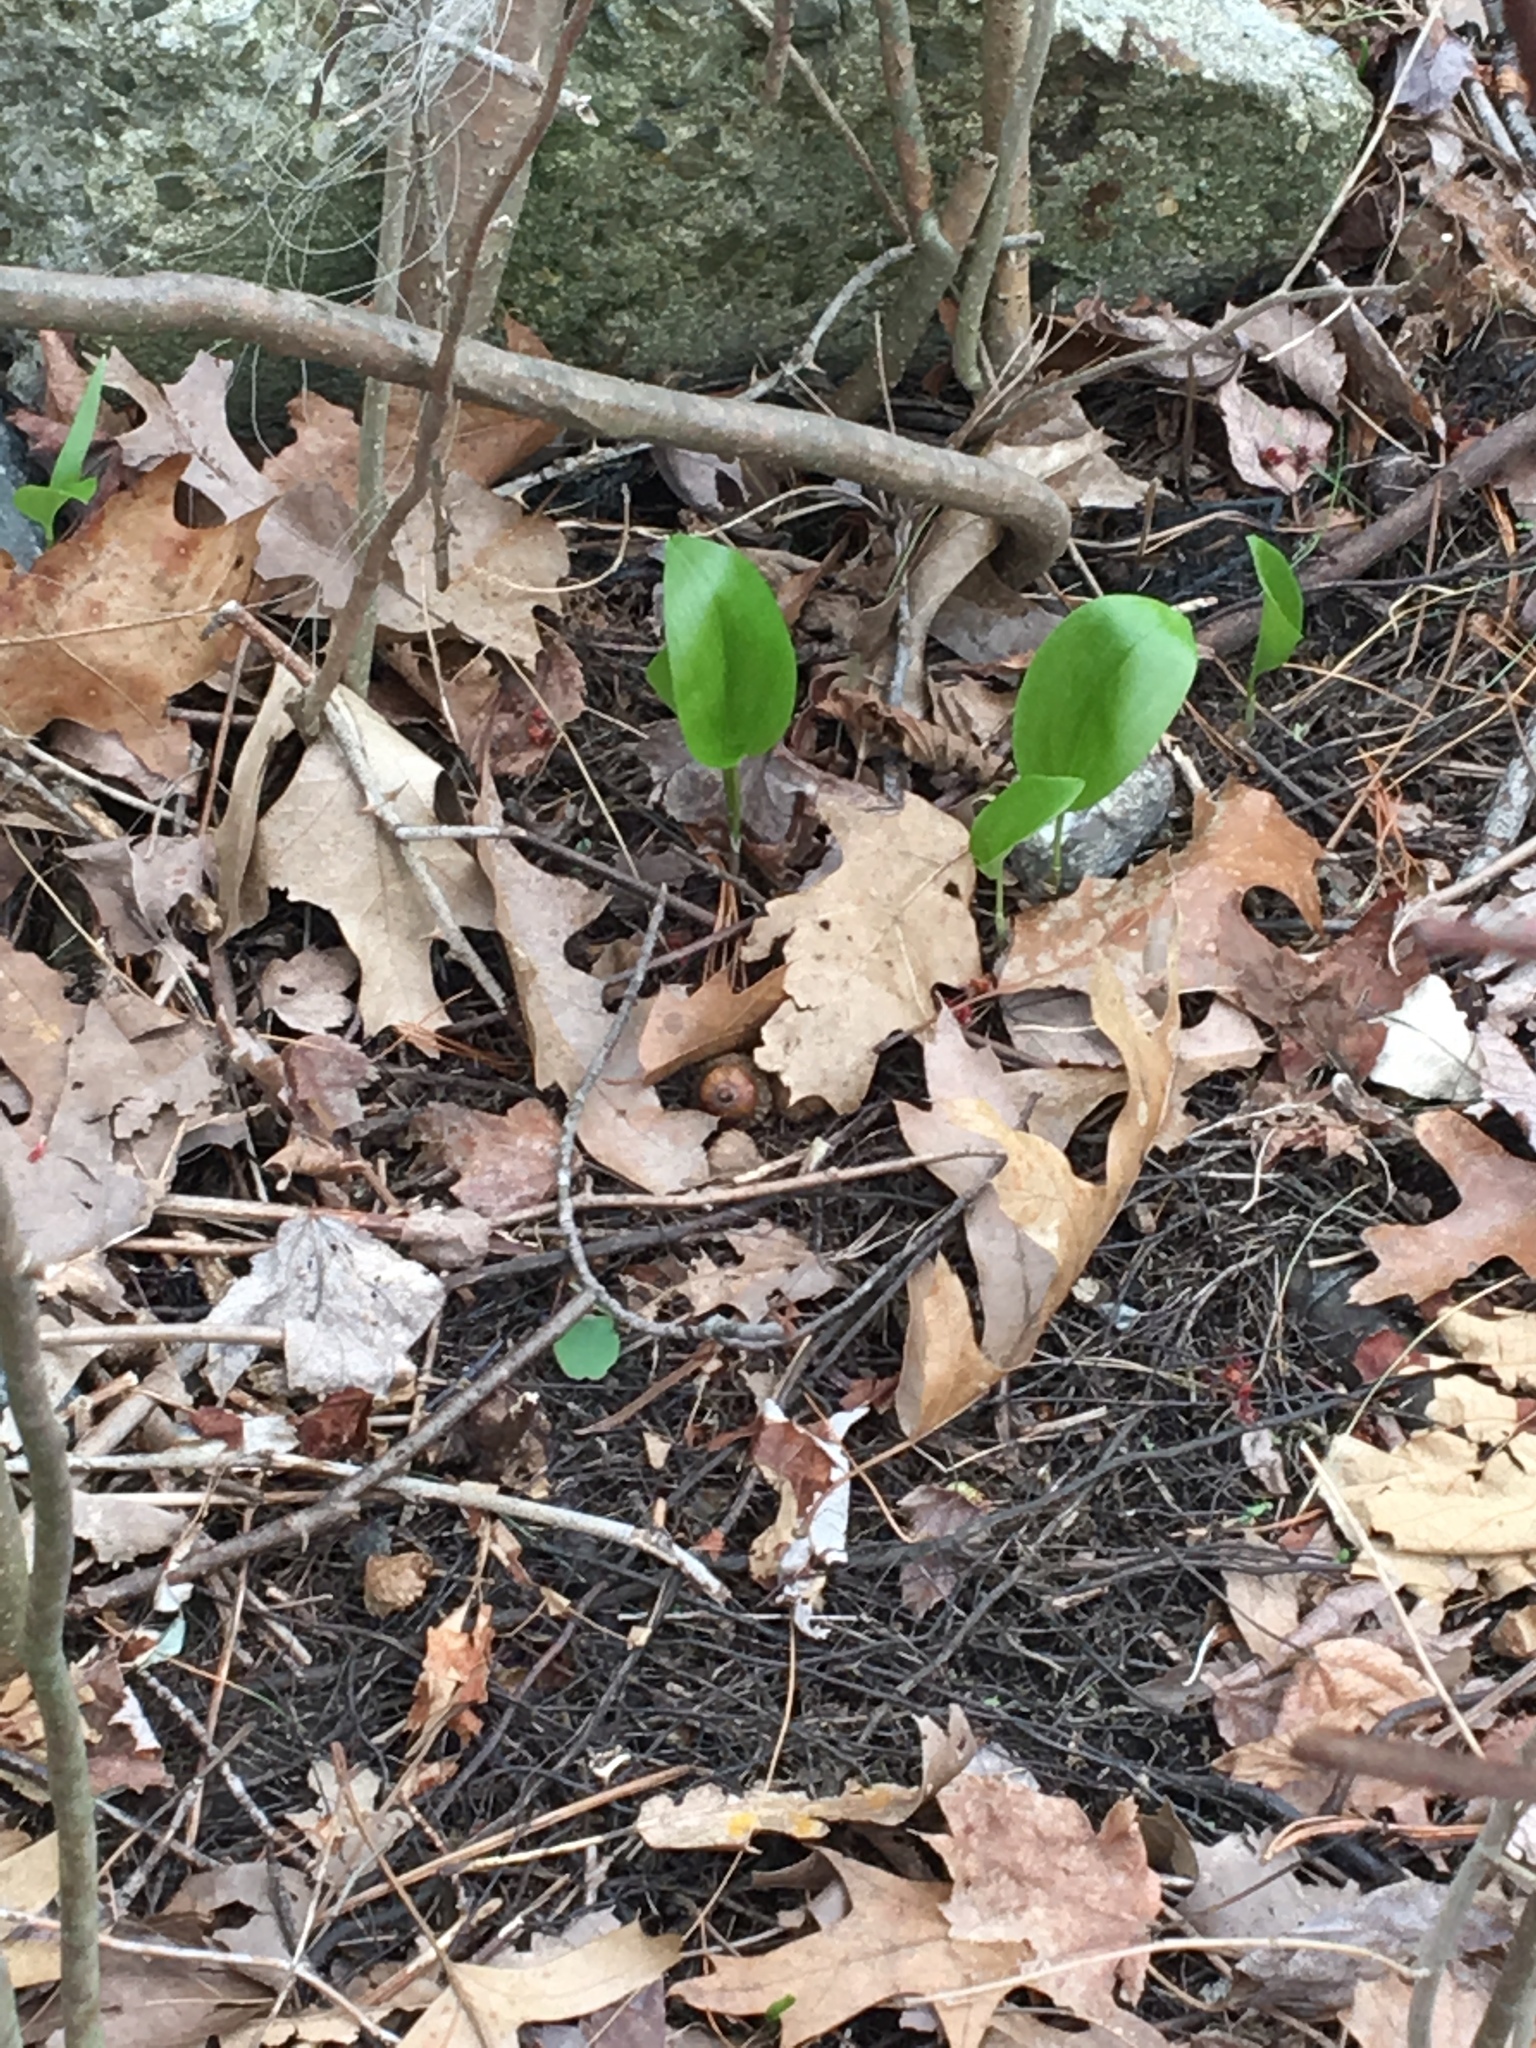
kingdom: Plantae
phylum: Tracheophyta
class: Liliopsida
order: Asparagales
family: Asparagaceae
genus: Maianthemum
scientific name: Maianthemum canadense
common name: False lily-of-the-valley
